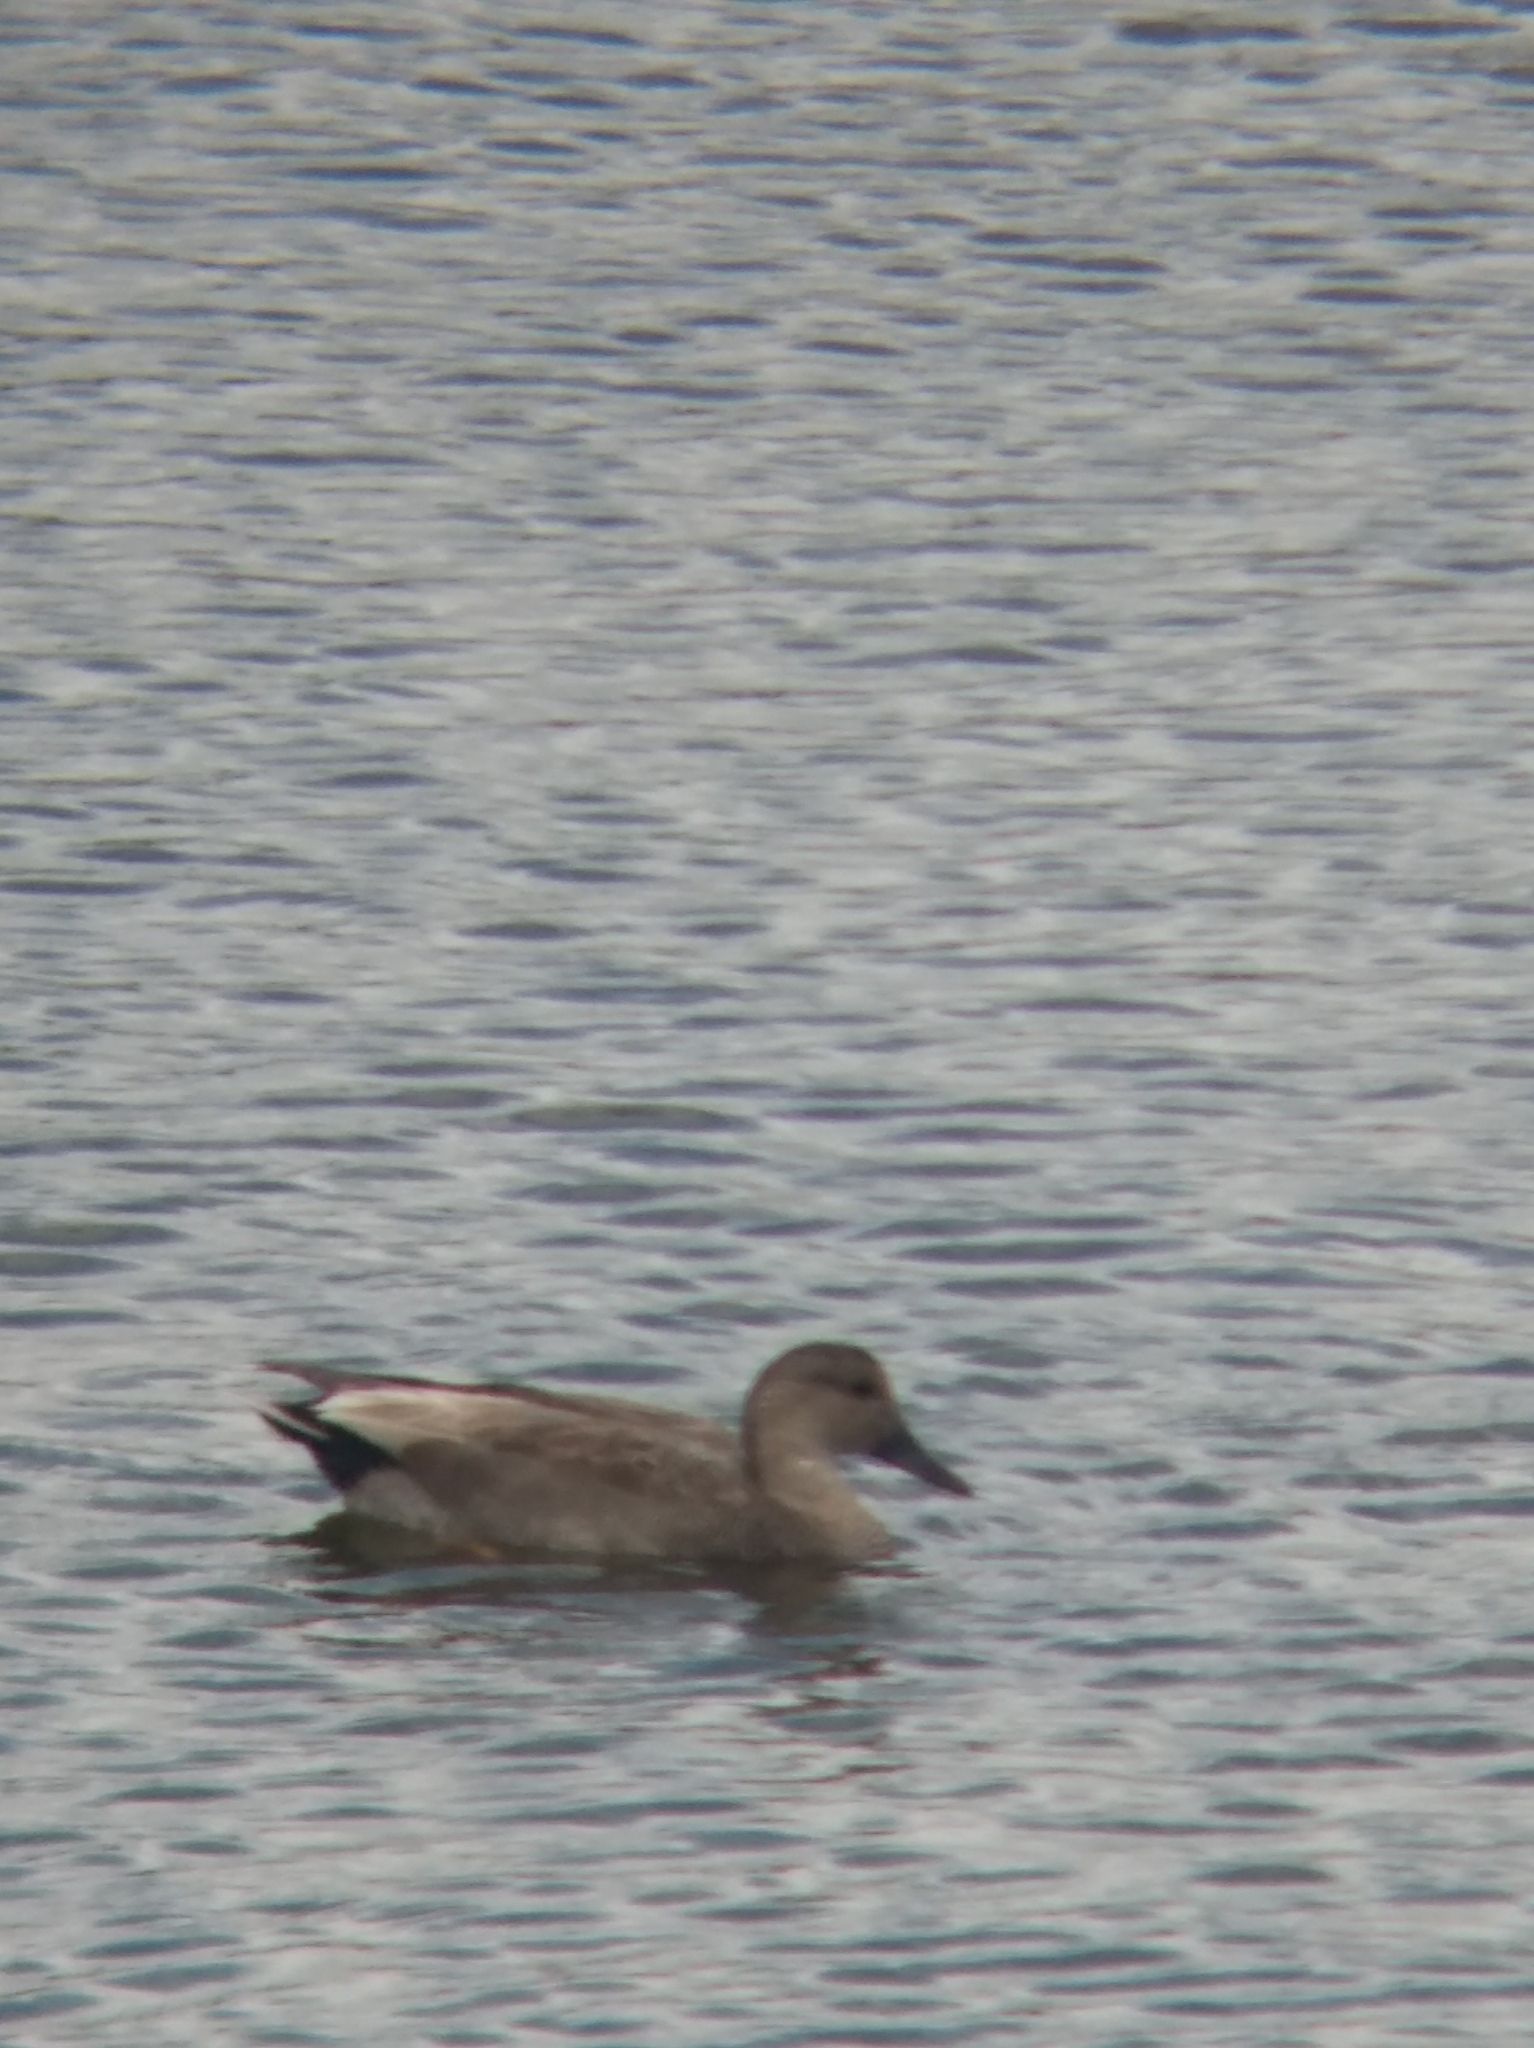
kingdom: Animalia
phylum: Chordata
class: Aves
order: Anseriformes
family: Anatidae
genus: Mareca
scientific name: Mareca strepera
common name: Gadwall
